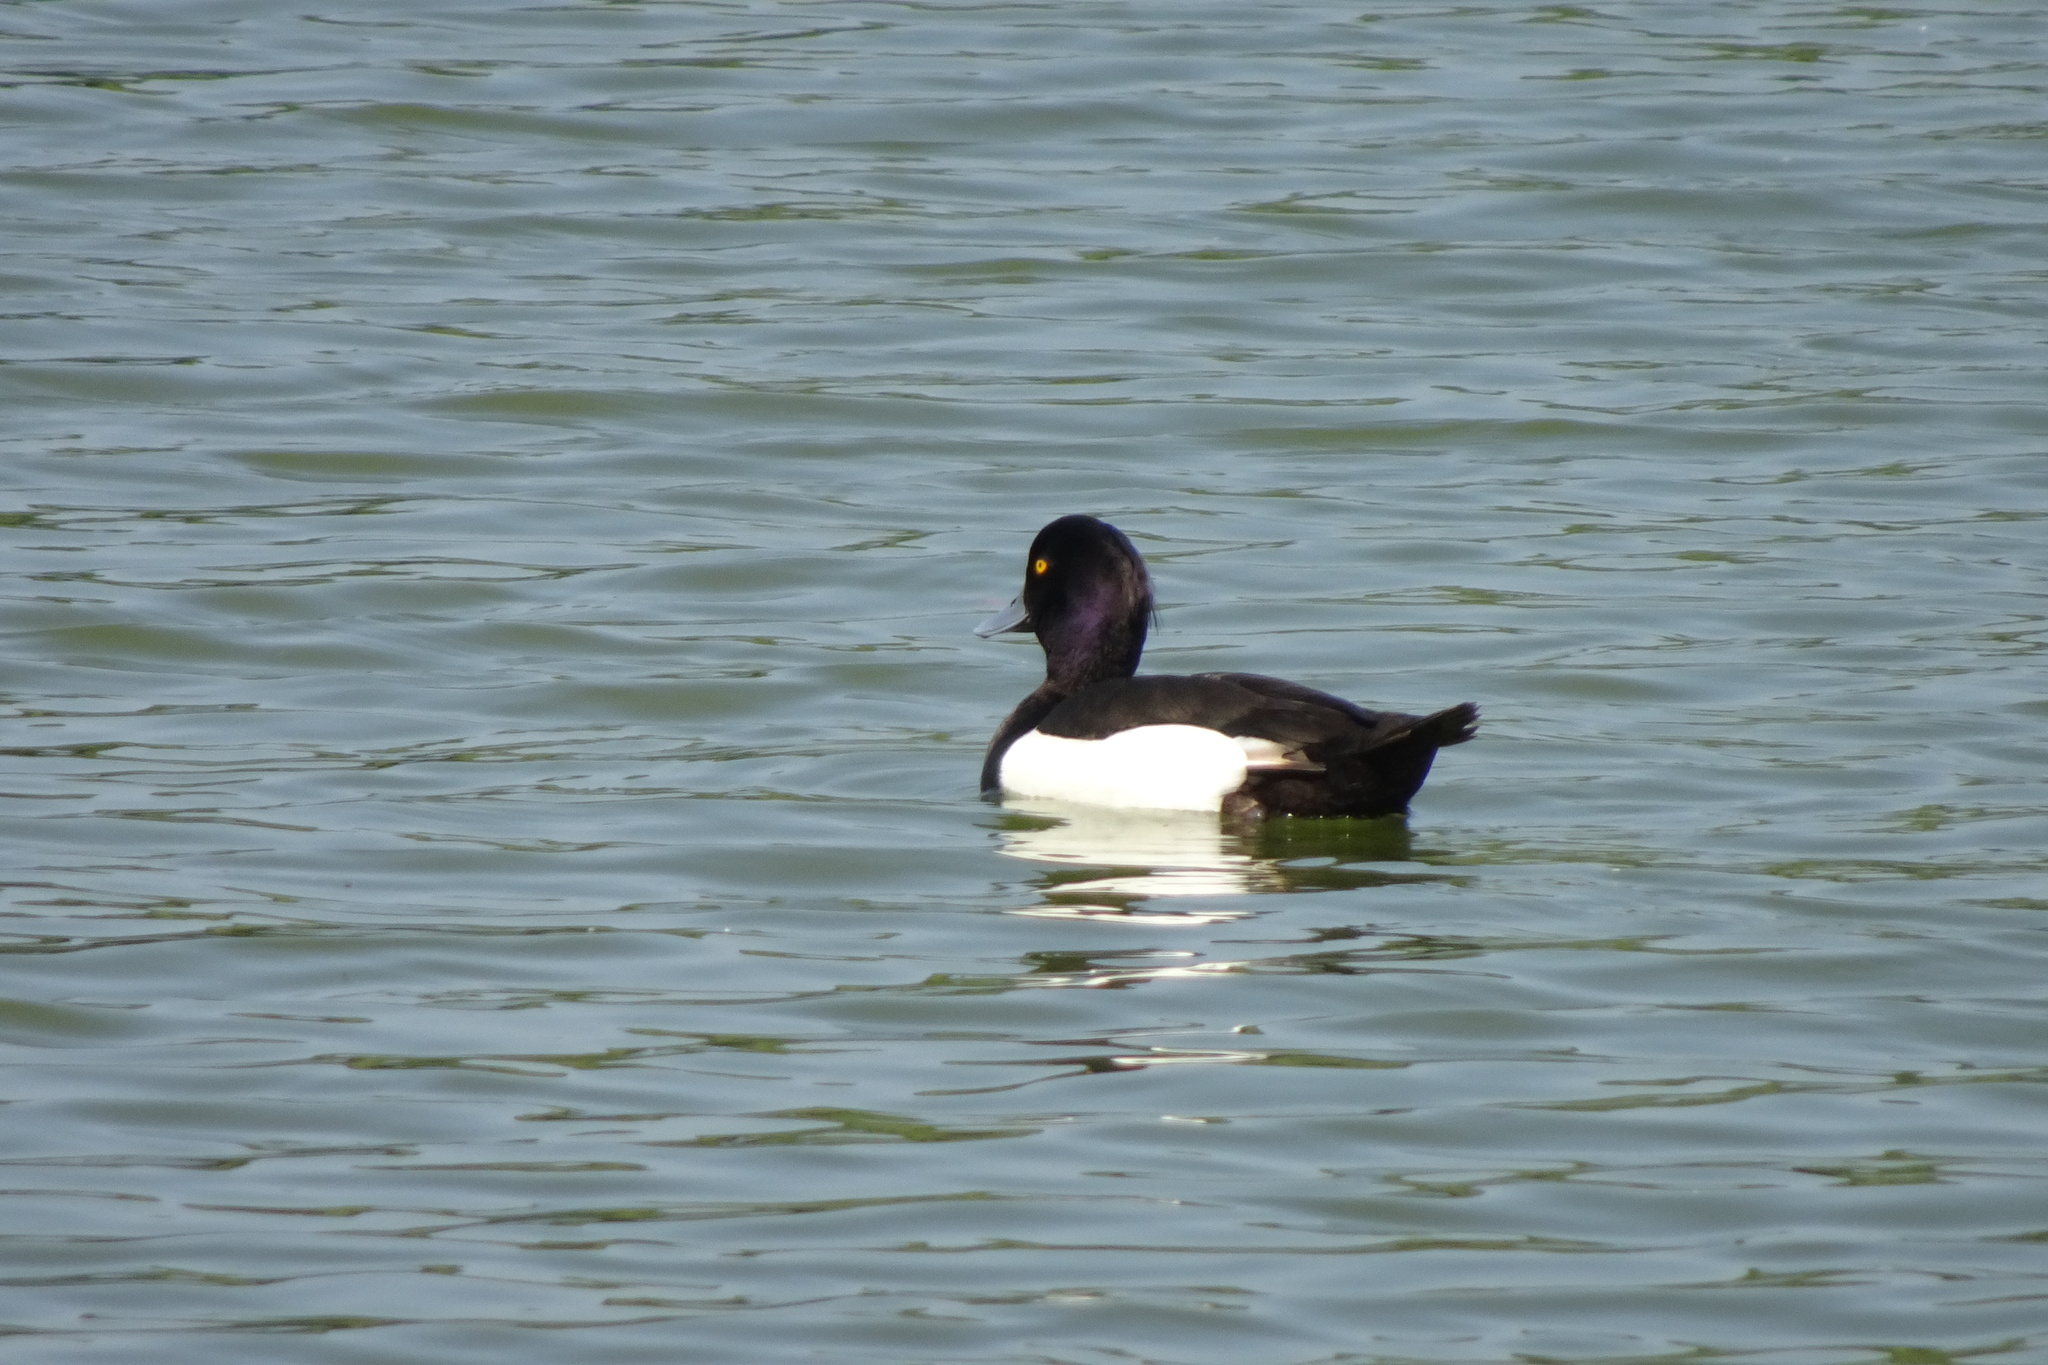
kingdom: Animalia
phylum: Chordata
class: Aves
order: Anseriformes
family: Anatidae
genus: Aythya
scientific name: Aythya fuligula
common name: Tufted duck
